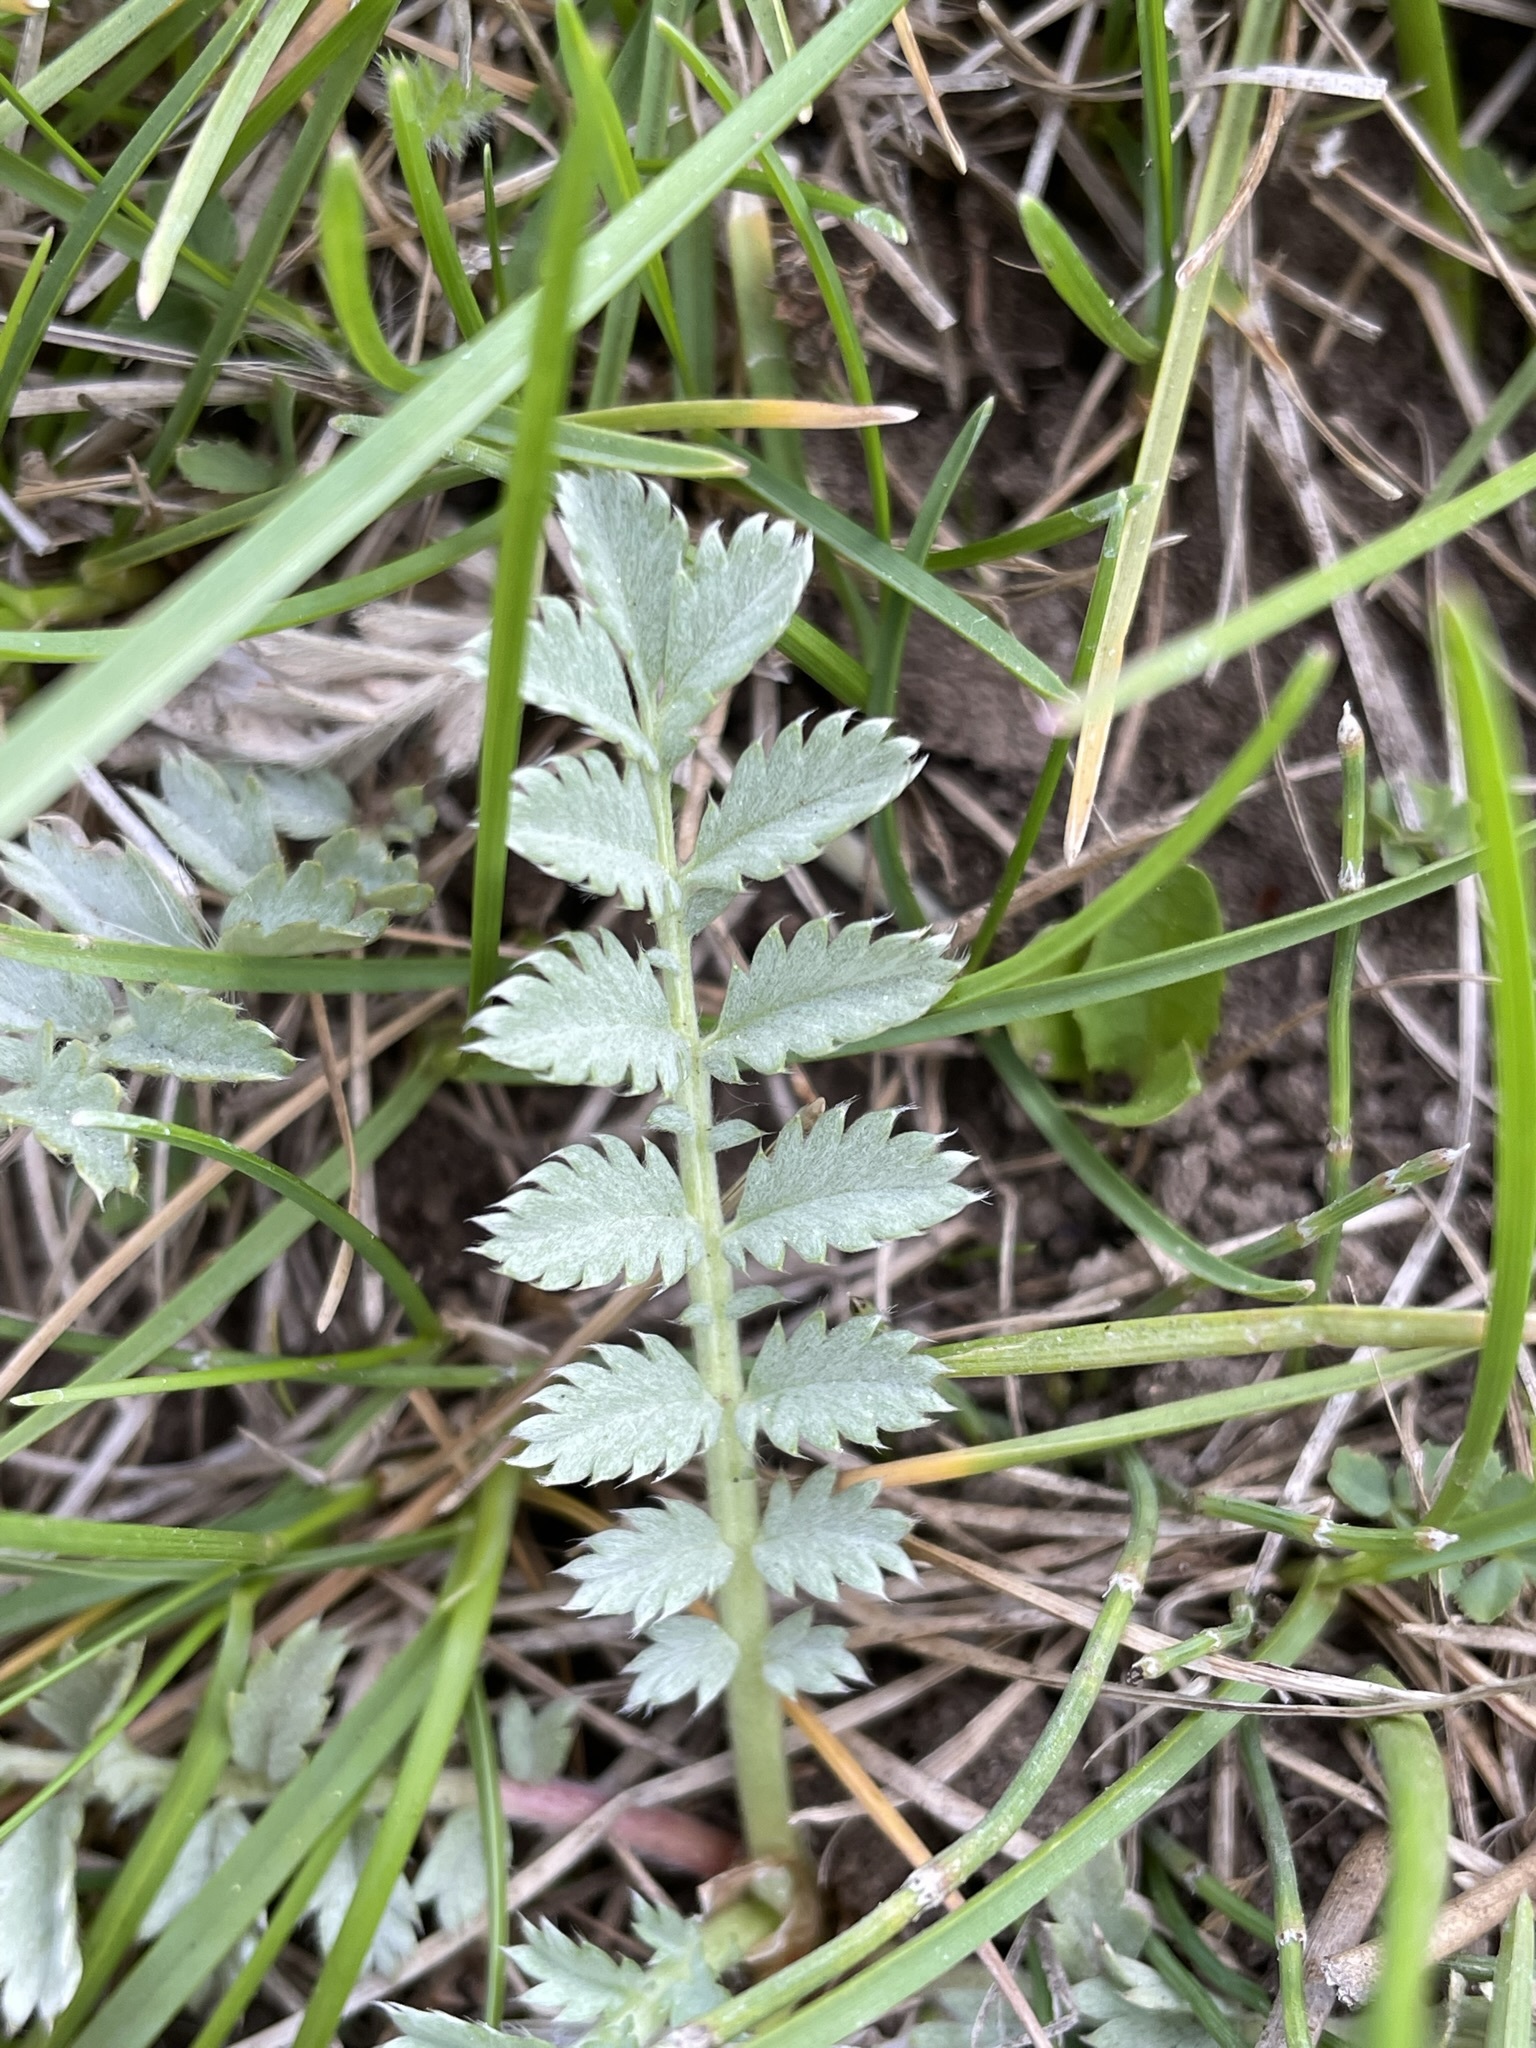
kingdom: Plantae
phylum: Tracheophyta
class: Magnoliopsida
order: Rosales
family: Rosaceae
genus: Argentina
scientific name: Argentina anserina
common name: Common silverweed
